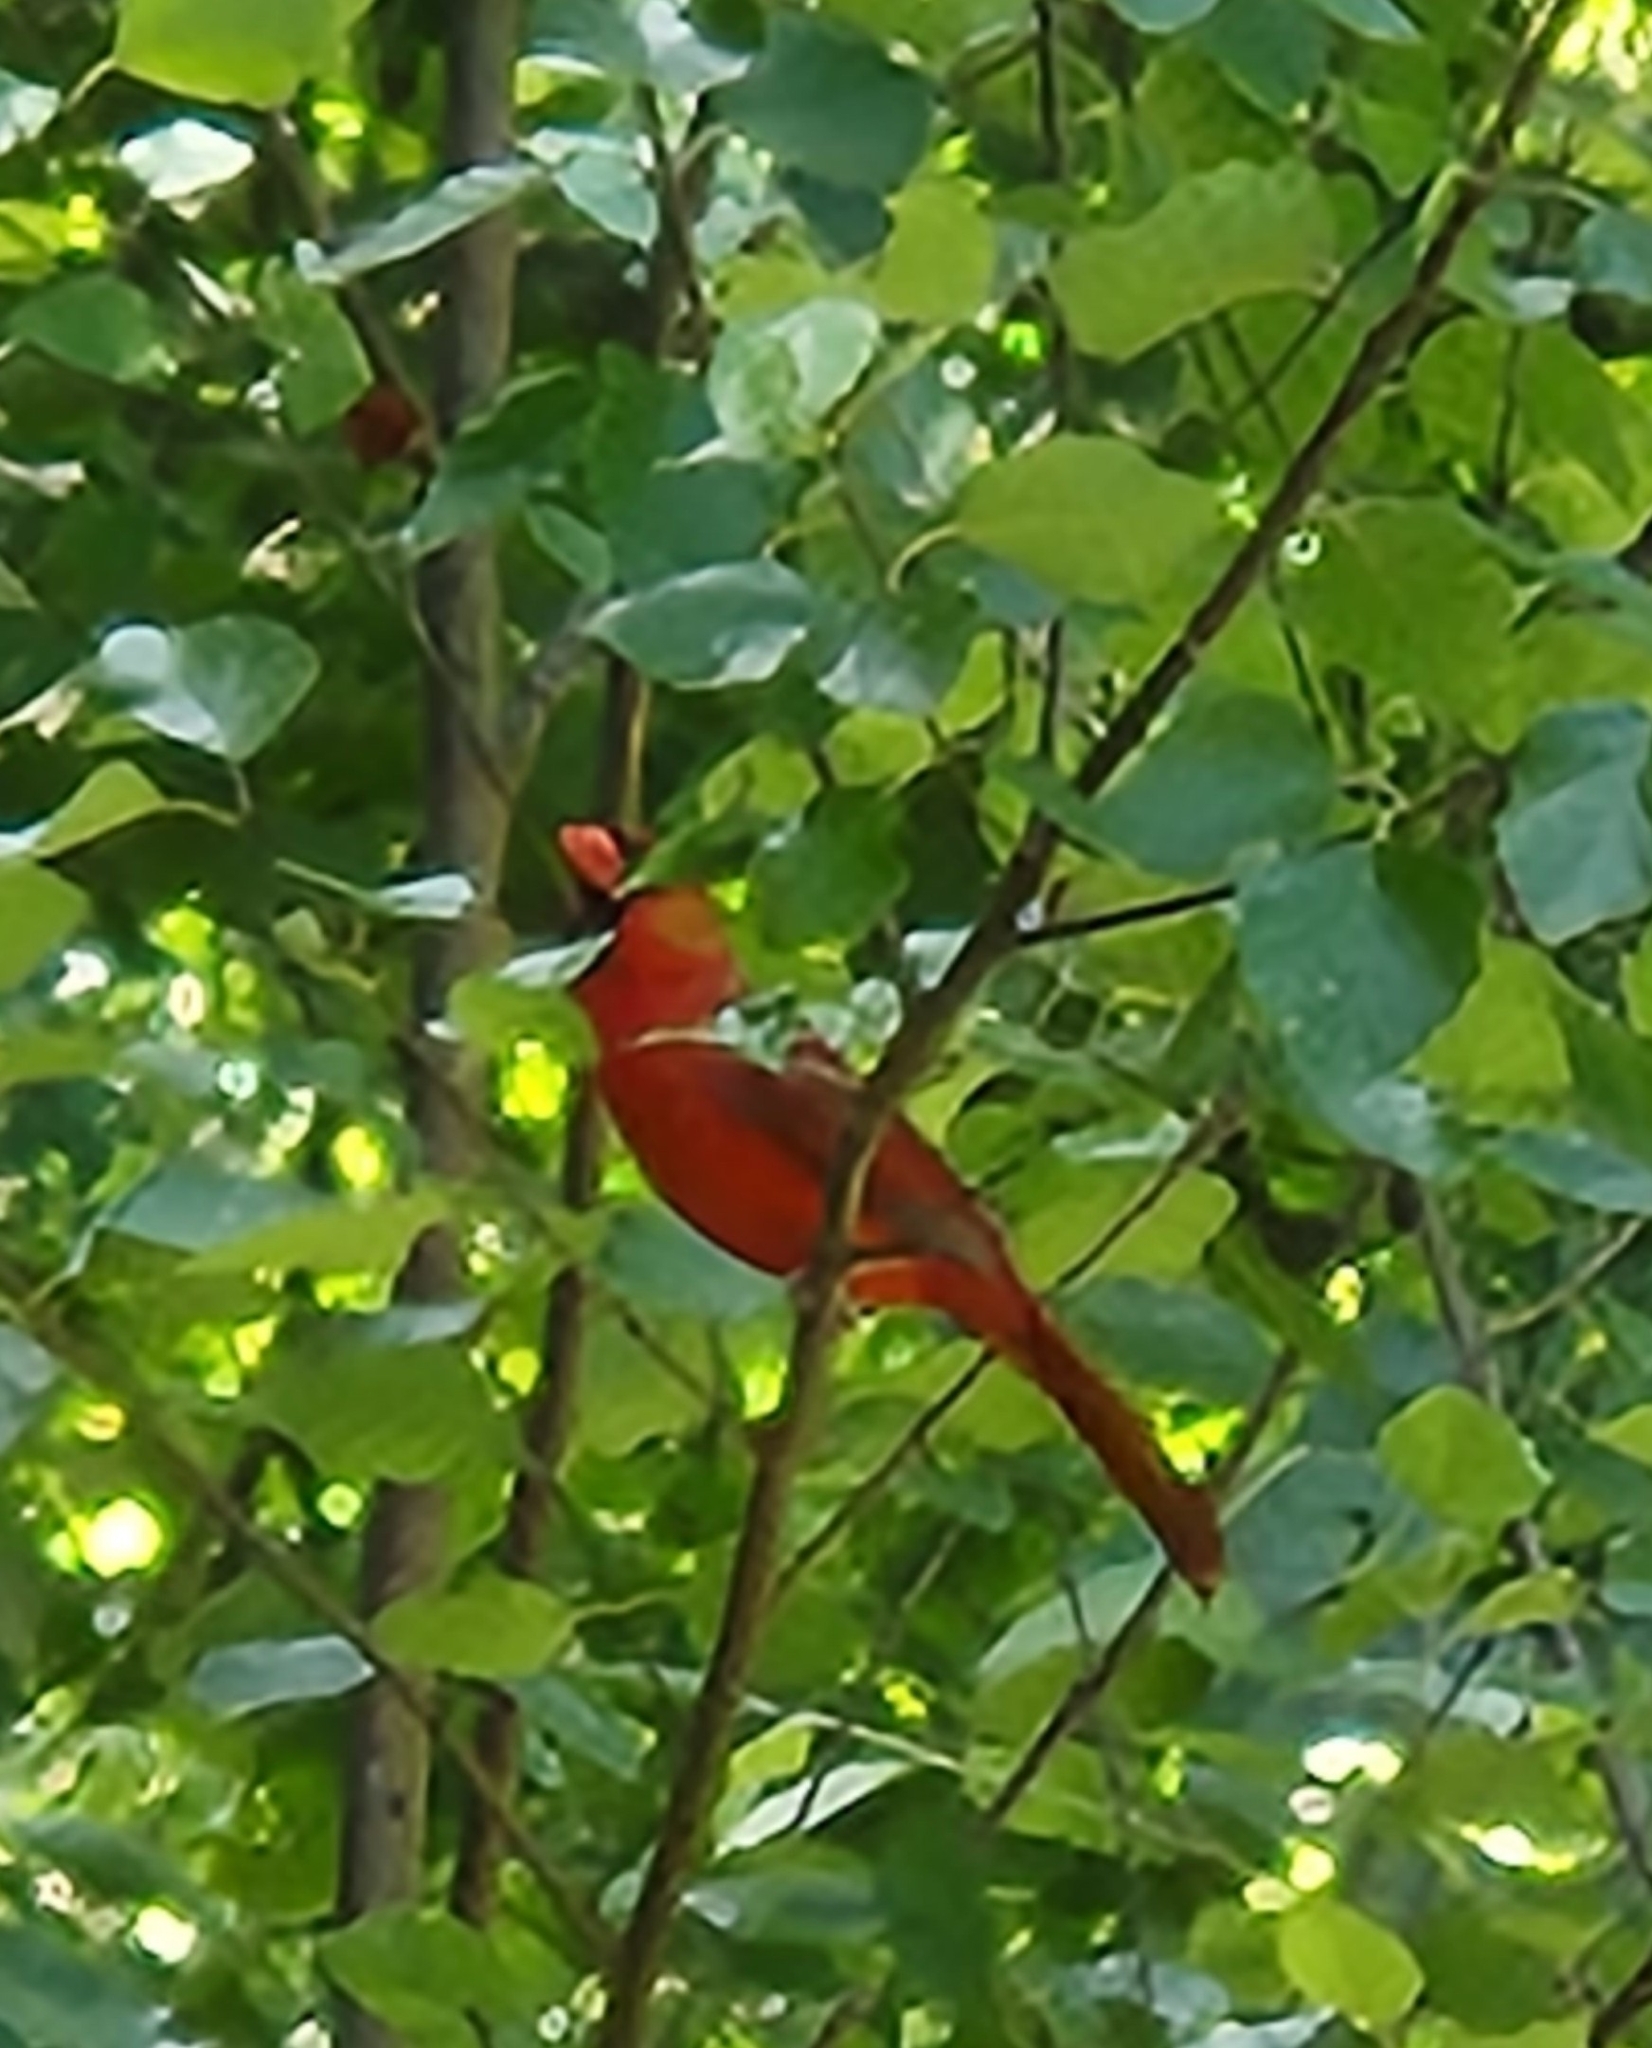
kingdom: Animalia
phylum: Chordata
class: Aves
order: Passeriformes
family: Cardinalidae
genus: Cardinalis
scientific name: Cardinalis cardinalis
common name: Northern cardinal
